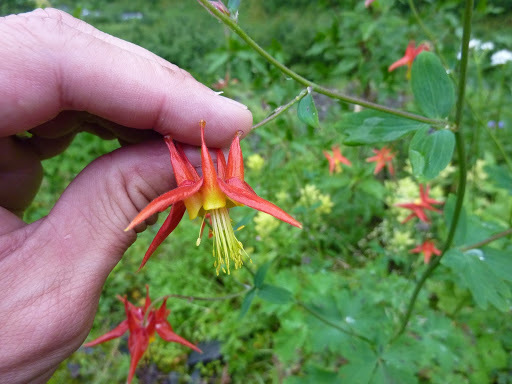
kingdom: Plantae
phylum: Tracheophyta
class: Magnoliopsida
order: Ranunculales
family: Ranunculaceae
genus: Aquilegia
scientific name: Aquilegia formosa
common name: Sitka columbine
